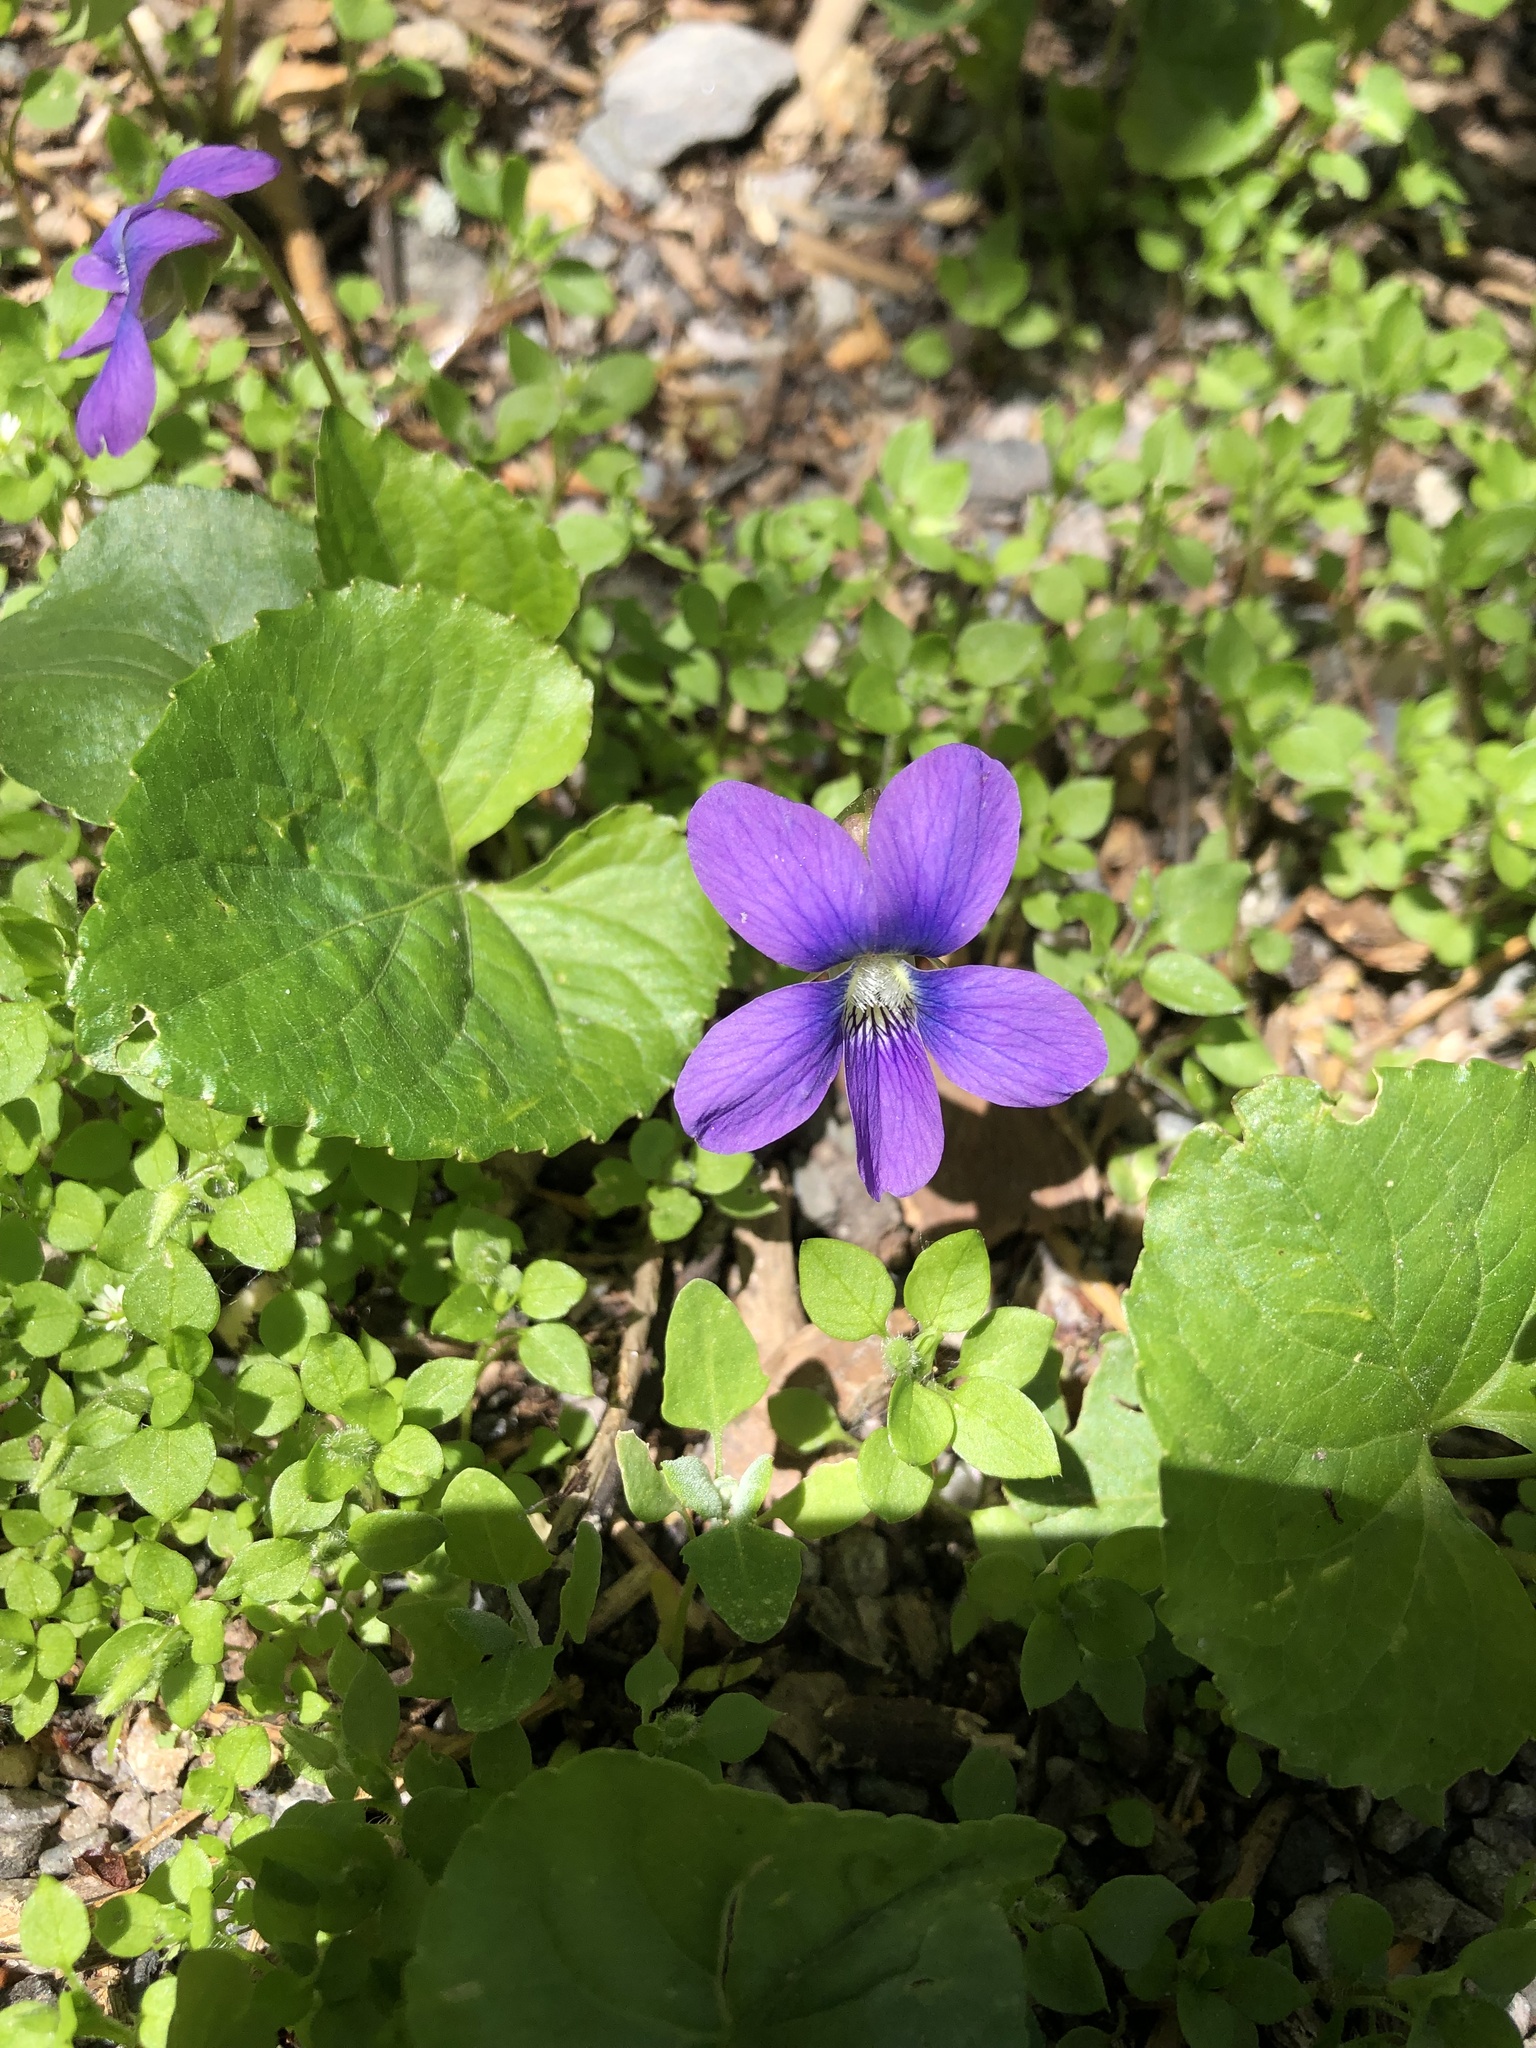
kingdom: Plantae
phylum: Tracheophyta
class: Magnoliopsida
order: Malpighiales
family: Violaceae
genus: Viola
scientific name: Viola sororia
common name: Dooryard violet
